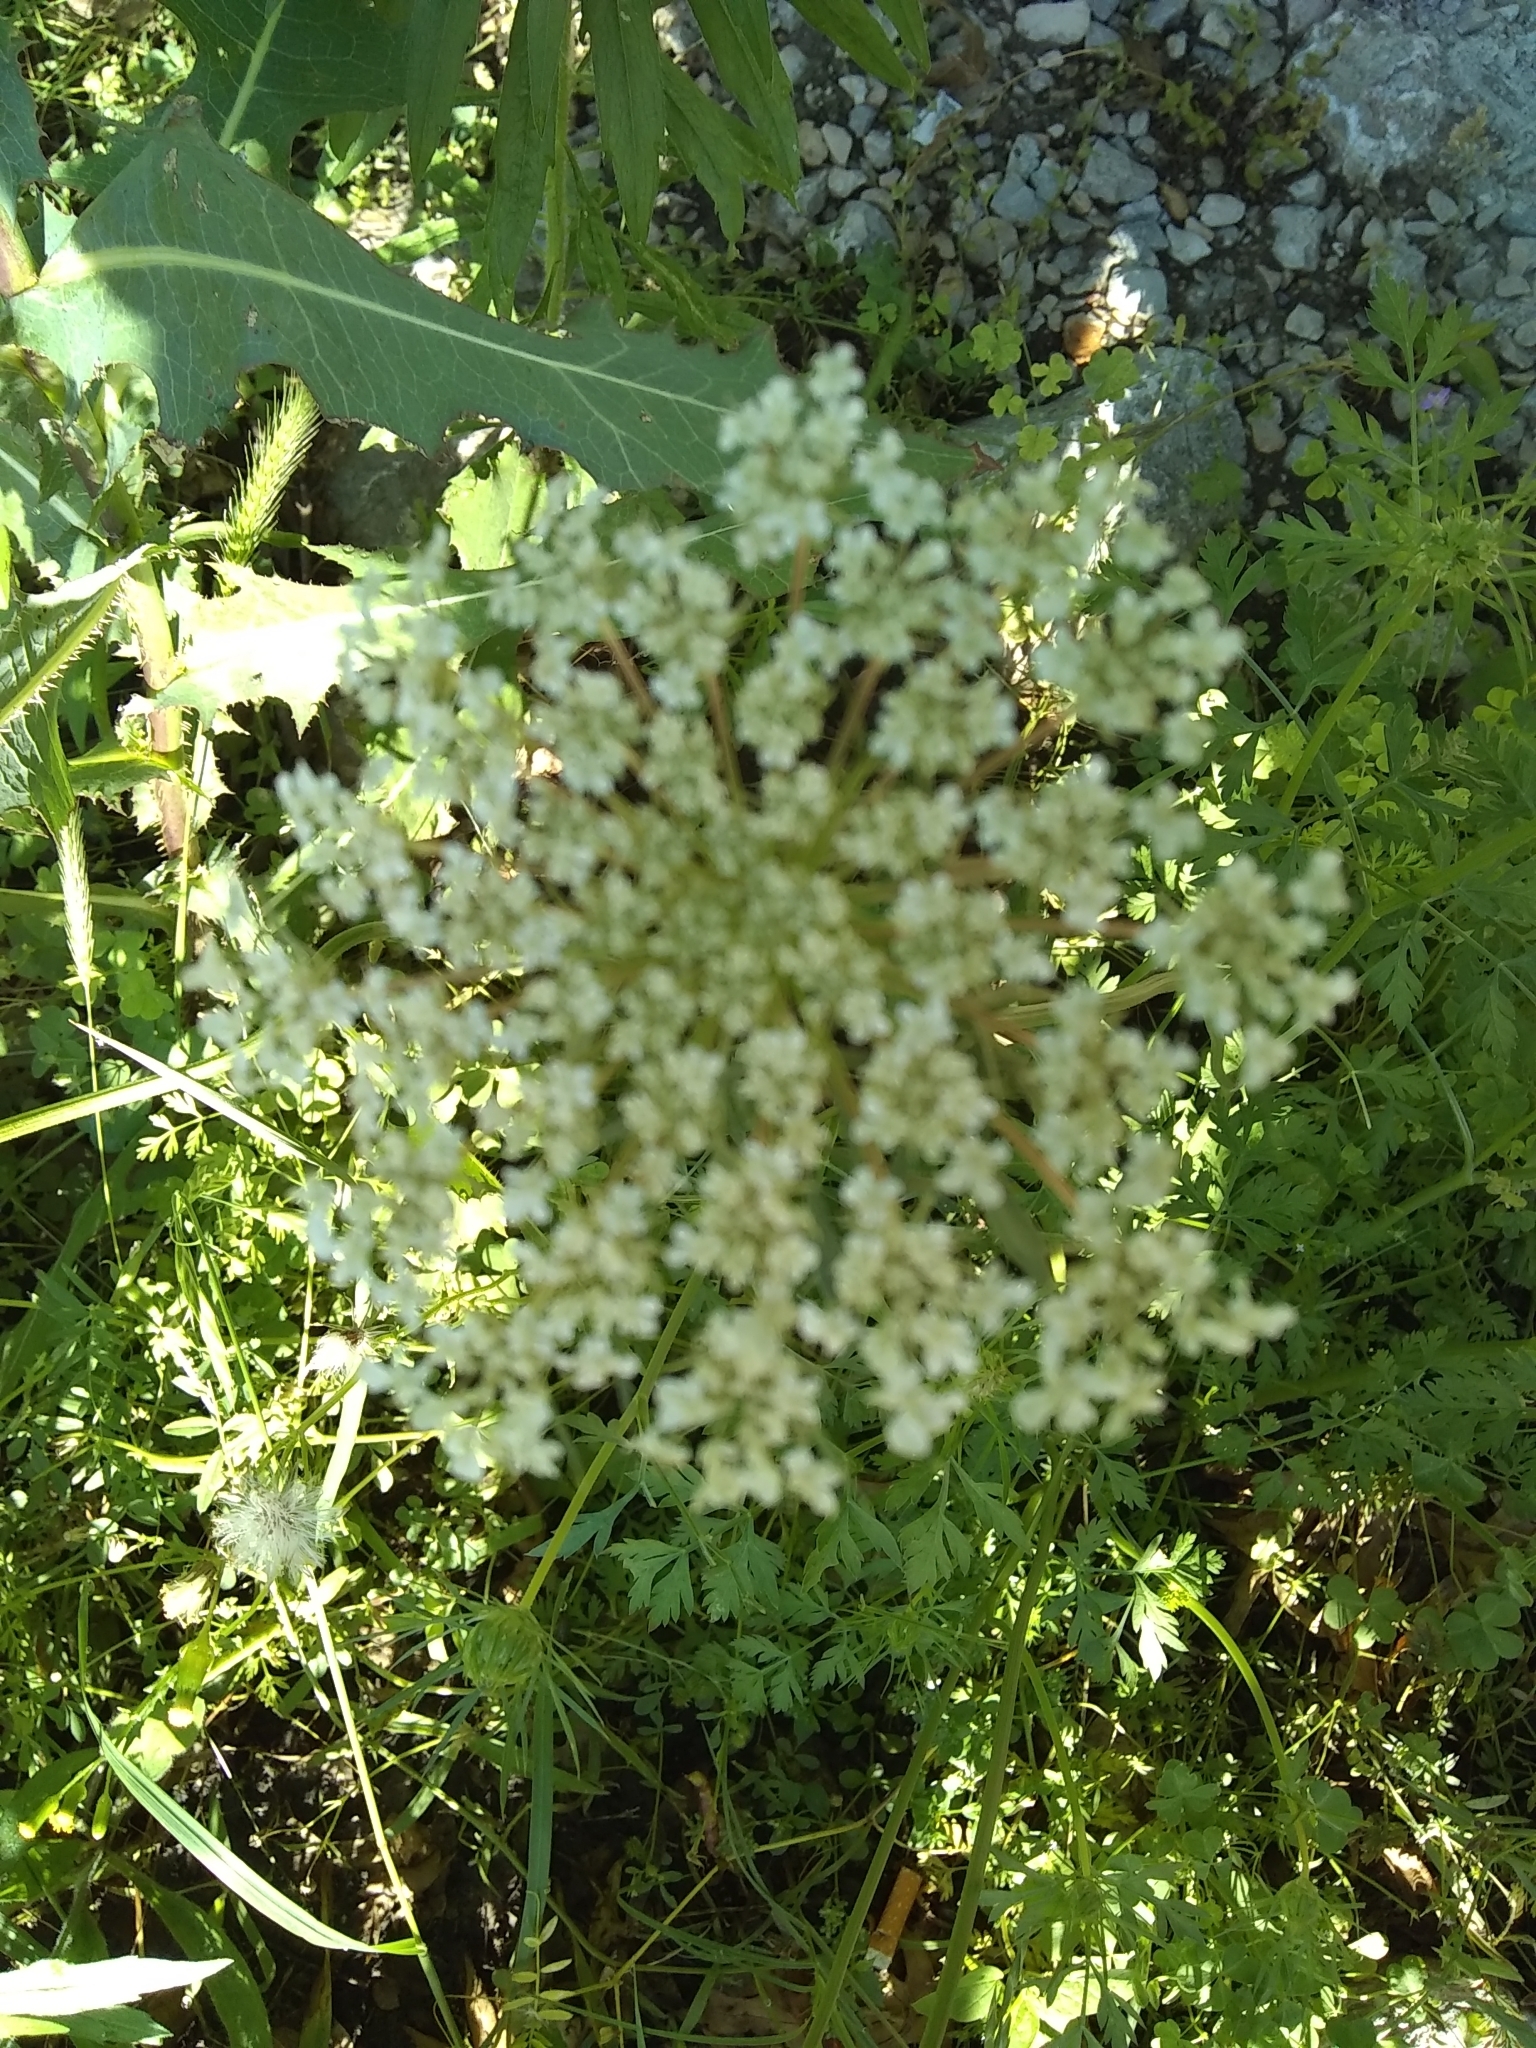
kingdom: Plantae
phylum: Tracheophyta
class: Magnoliopsida
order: Apiales
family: Apiaceae
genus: Torilis
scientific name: Torilis arvensis
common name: Spreading hedge-parsley
